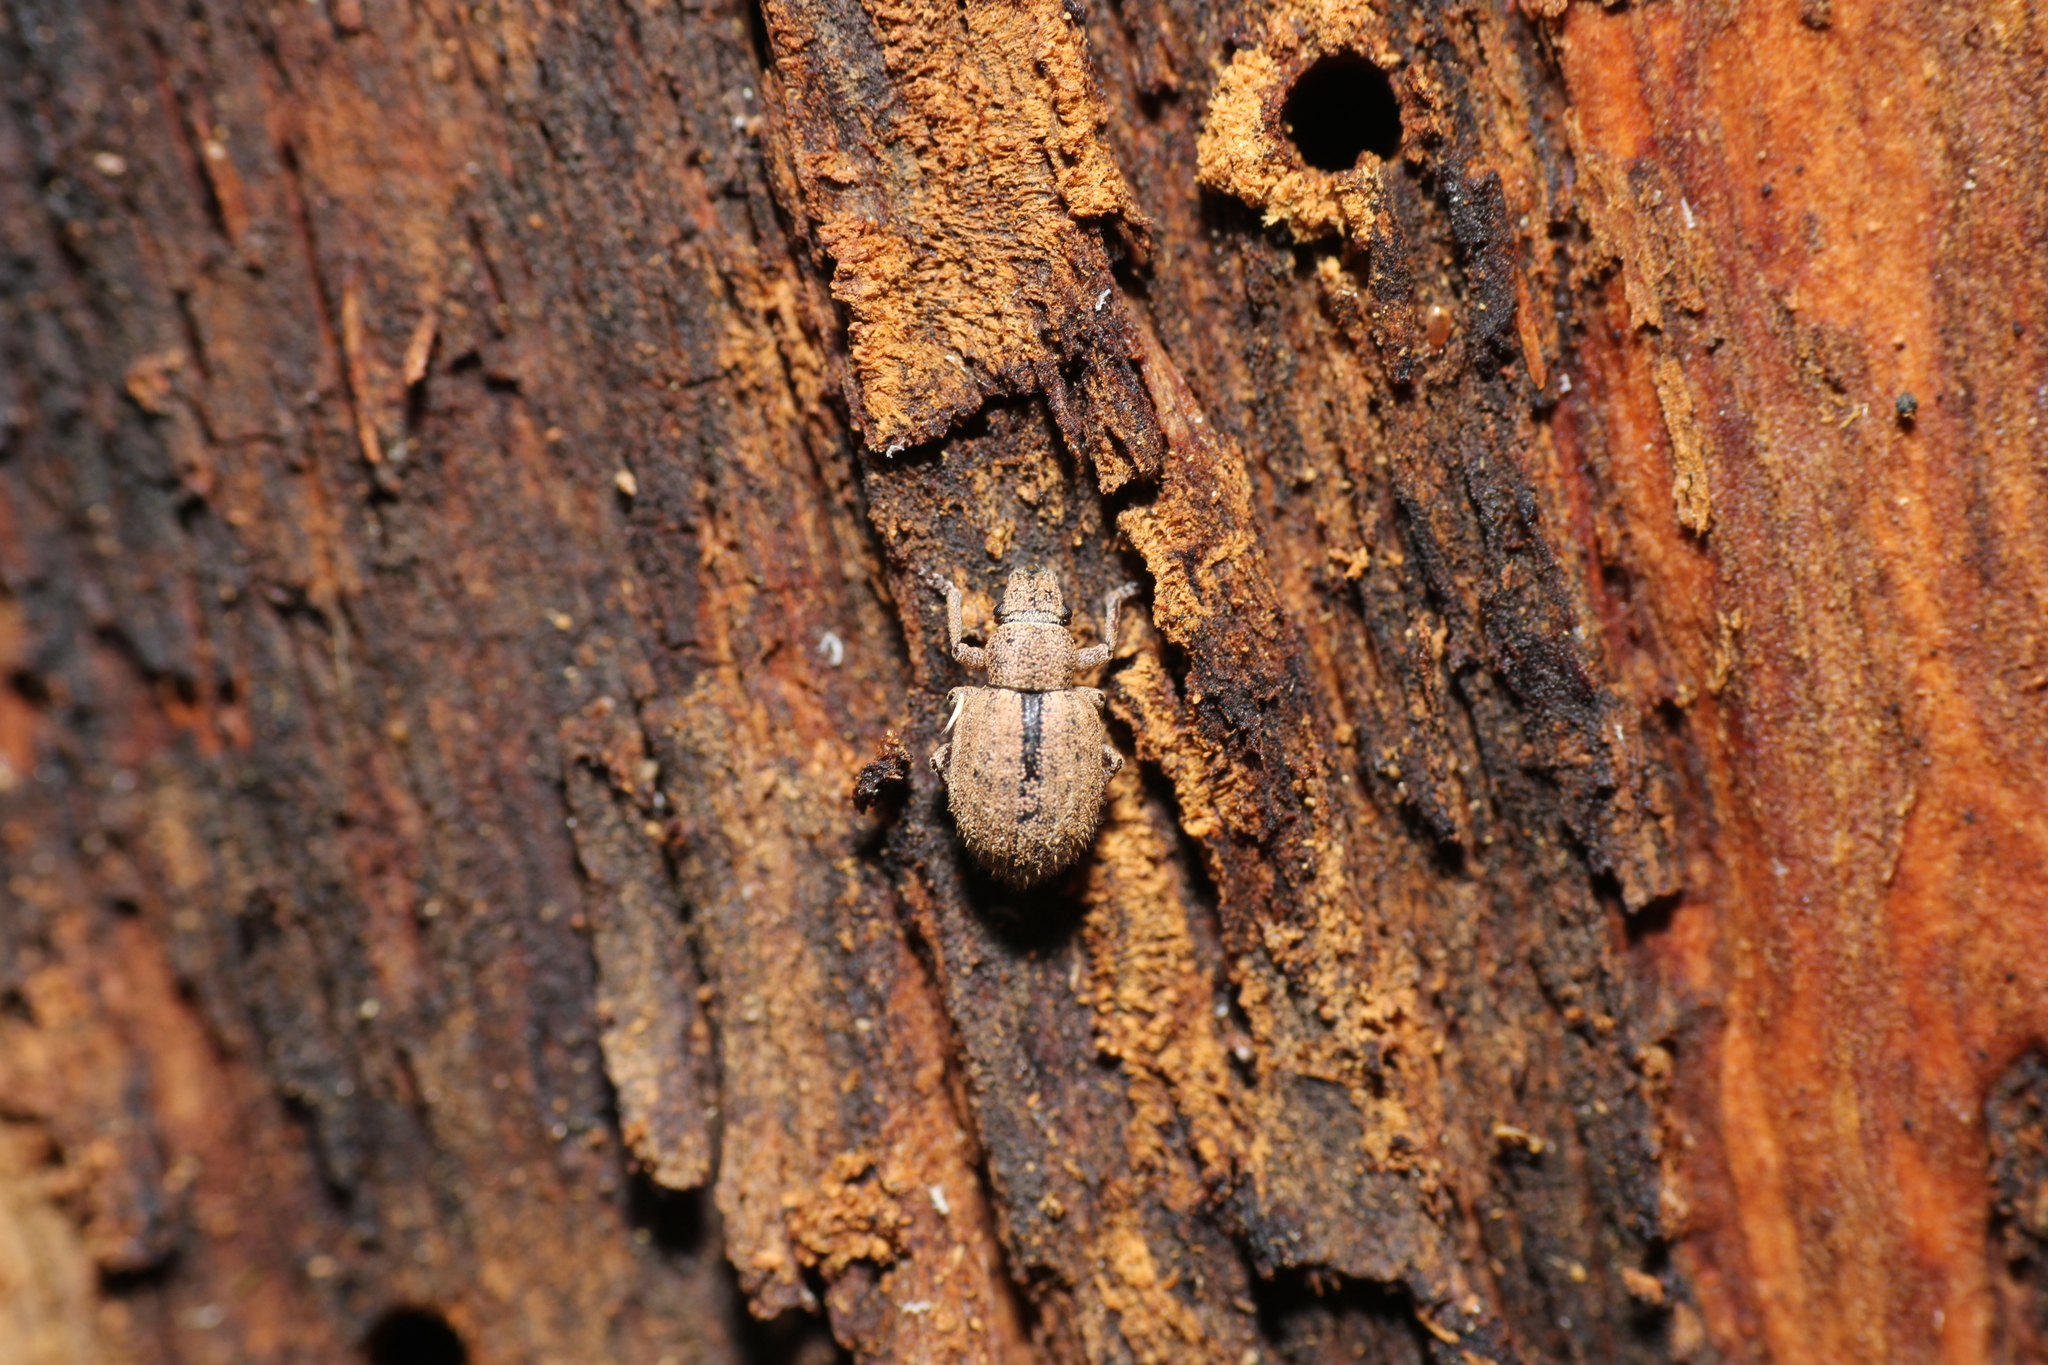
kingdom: Animalia
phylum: Arthropoda
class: Insecta
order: Coleoptera
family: Curculionidae
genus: Strophosoma
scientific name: Strophosoma melanogrammum
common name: Weevil
